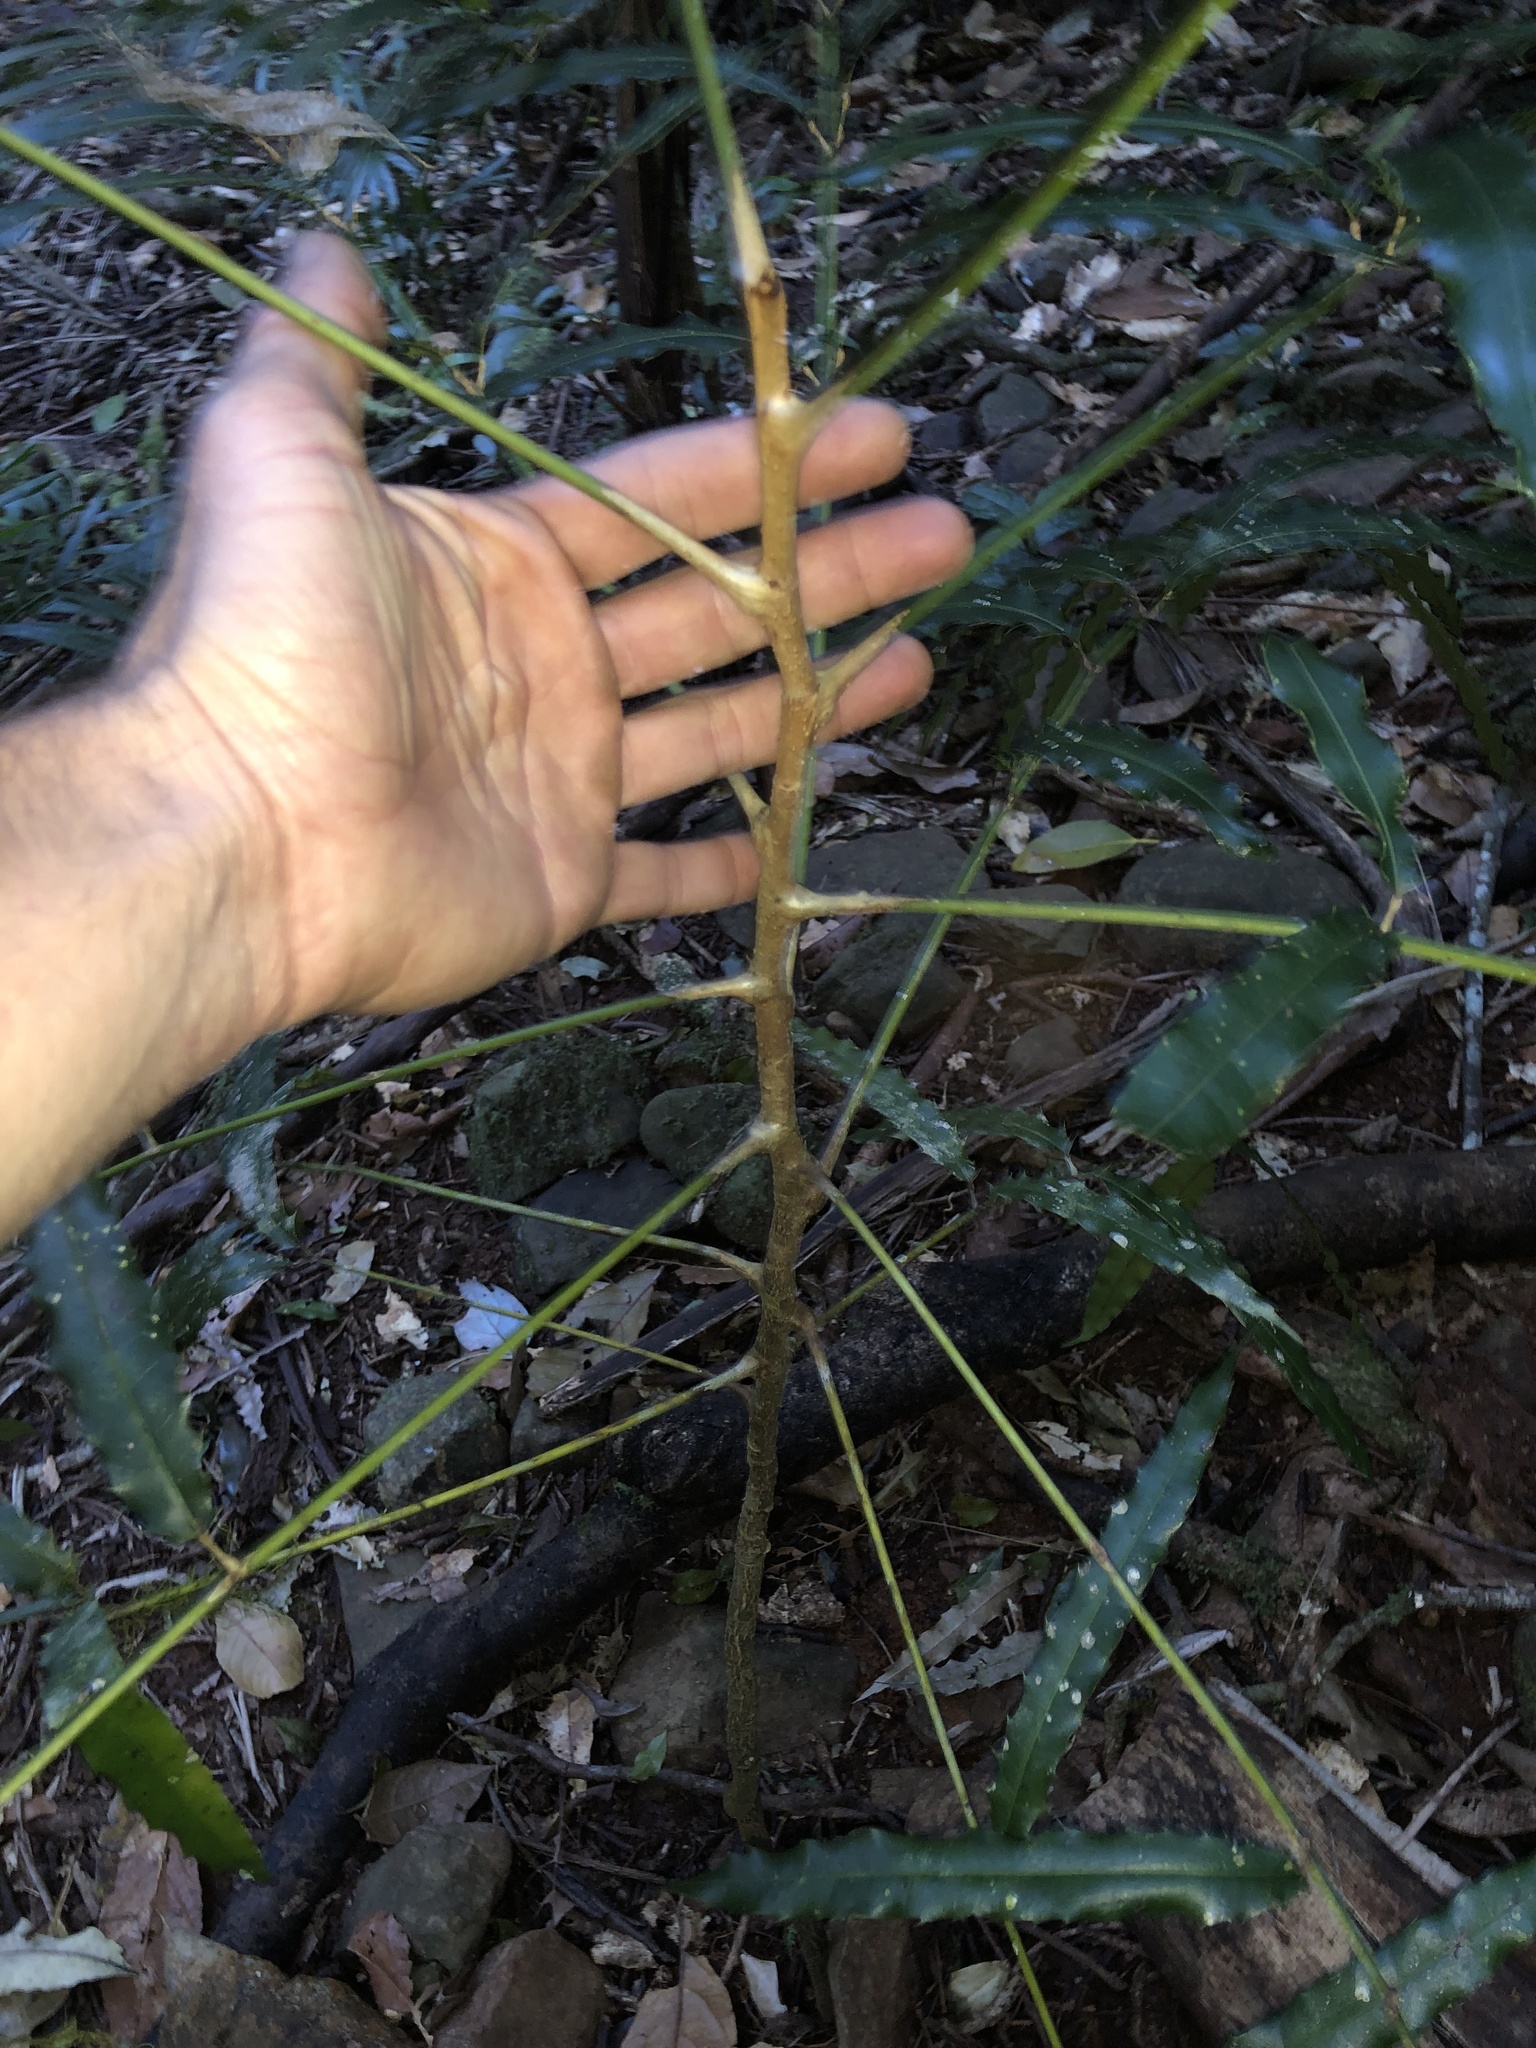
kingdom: Plantae
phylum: Tracheophyta
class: Magnoliopsida
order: Brassicales
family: Akaniaceae
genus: Akania
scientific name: Akania bidwillii
